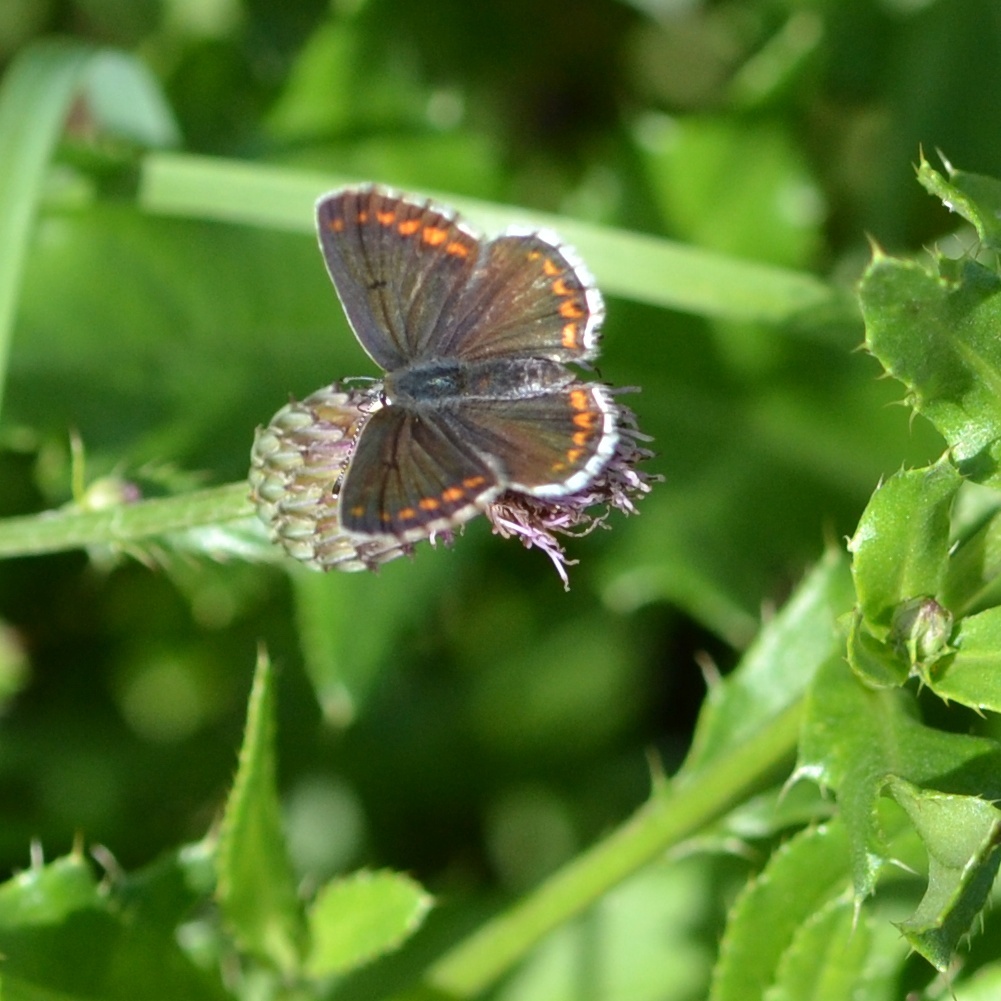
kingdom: Animalia
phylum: Arthropoda
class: Insecta
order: Lepidoptera
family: Lycaenidae
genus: Aricia
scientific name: Aricia agestis
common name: Brown argus
